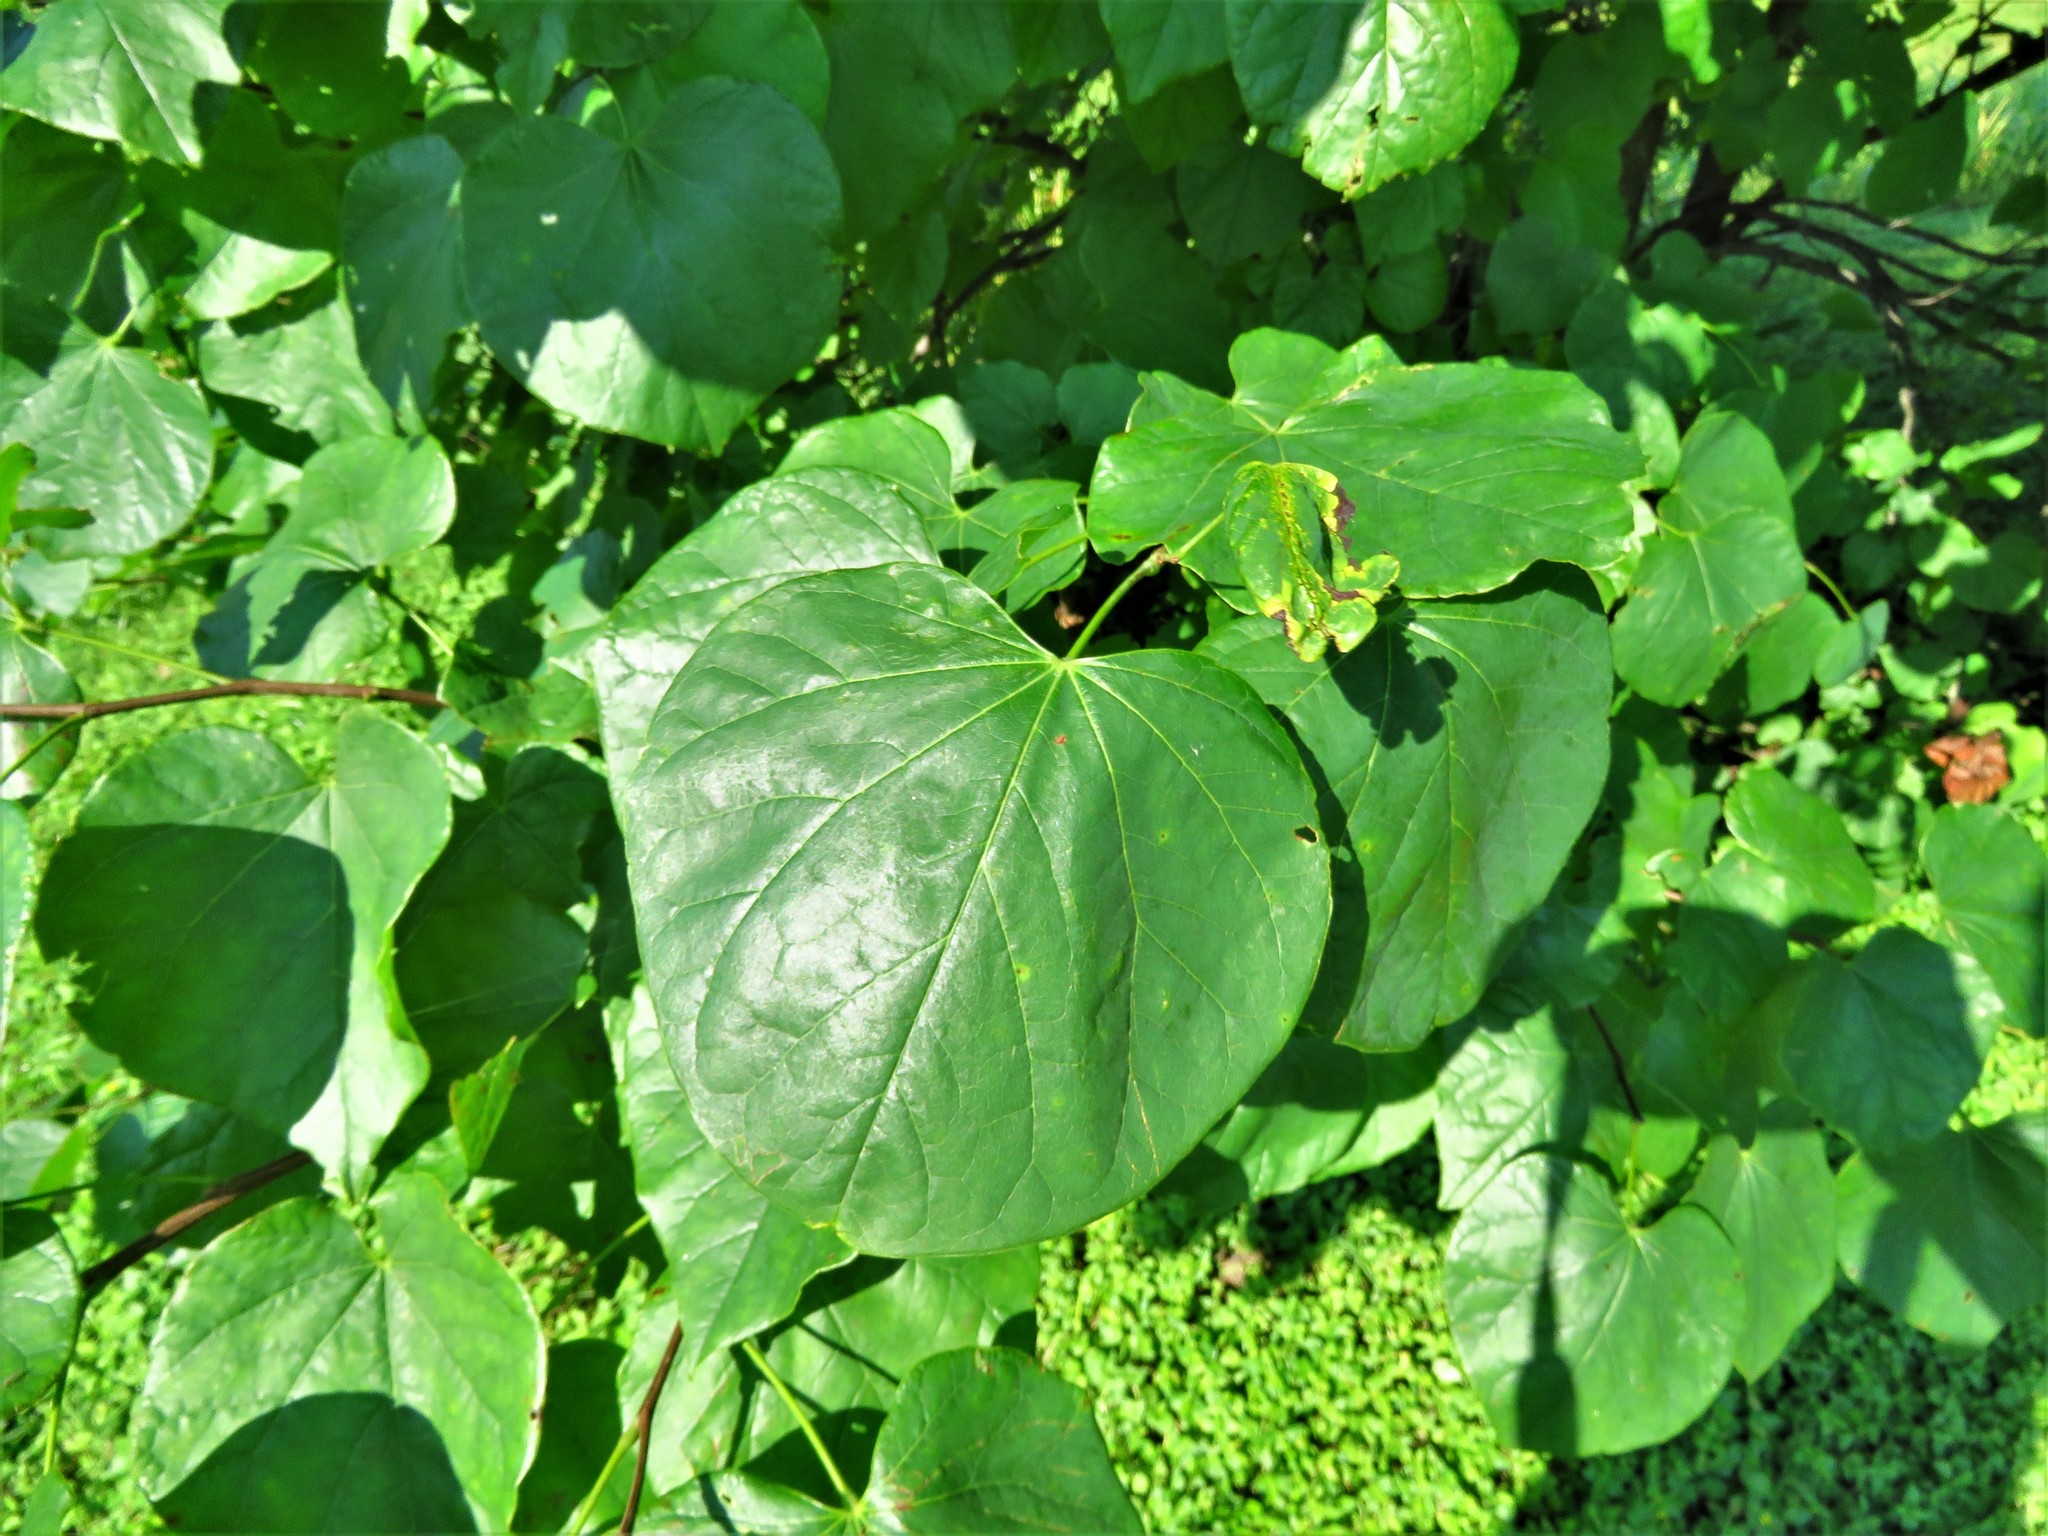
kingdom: Plantae
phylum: Tracheophyta
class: Magnoliopsida
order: Fabales
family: Fabaceae
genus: Cercis
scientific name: Cercis canadensis
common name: Eastern redbud
